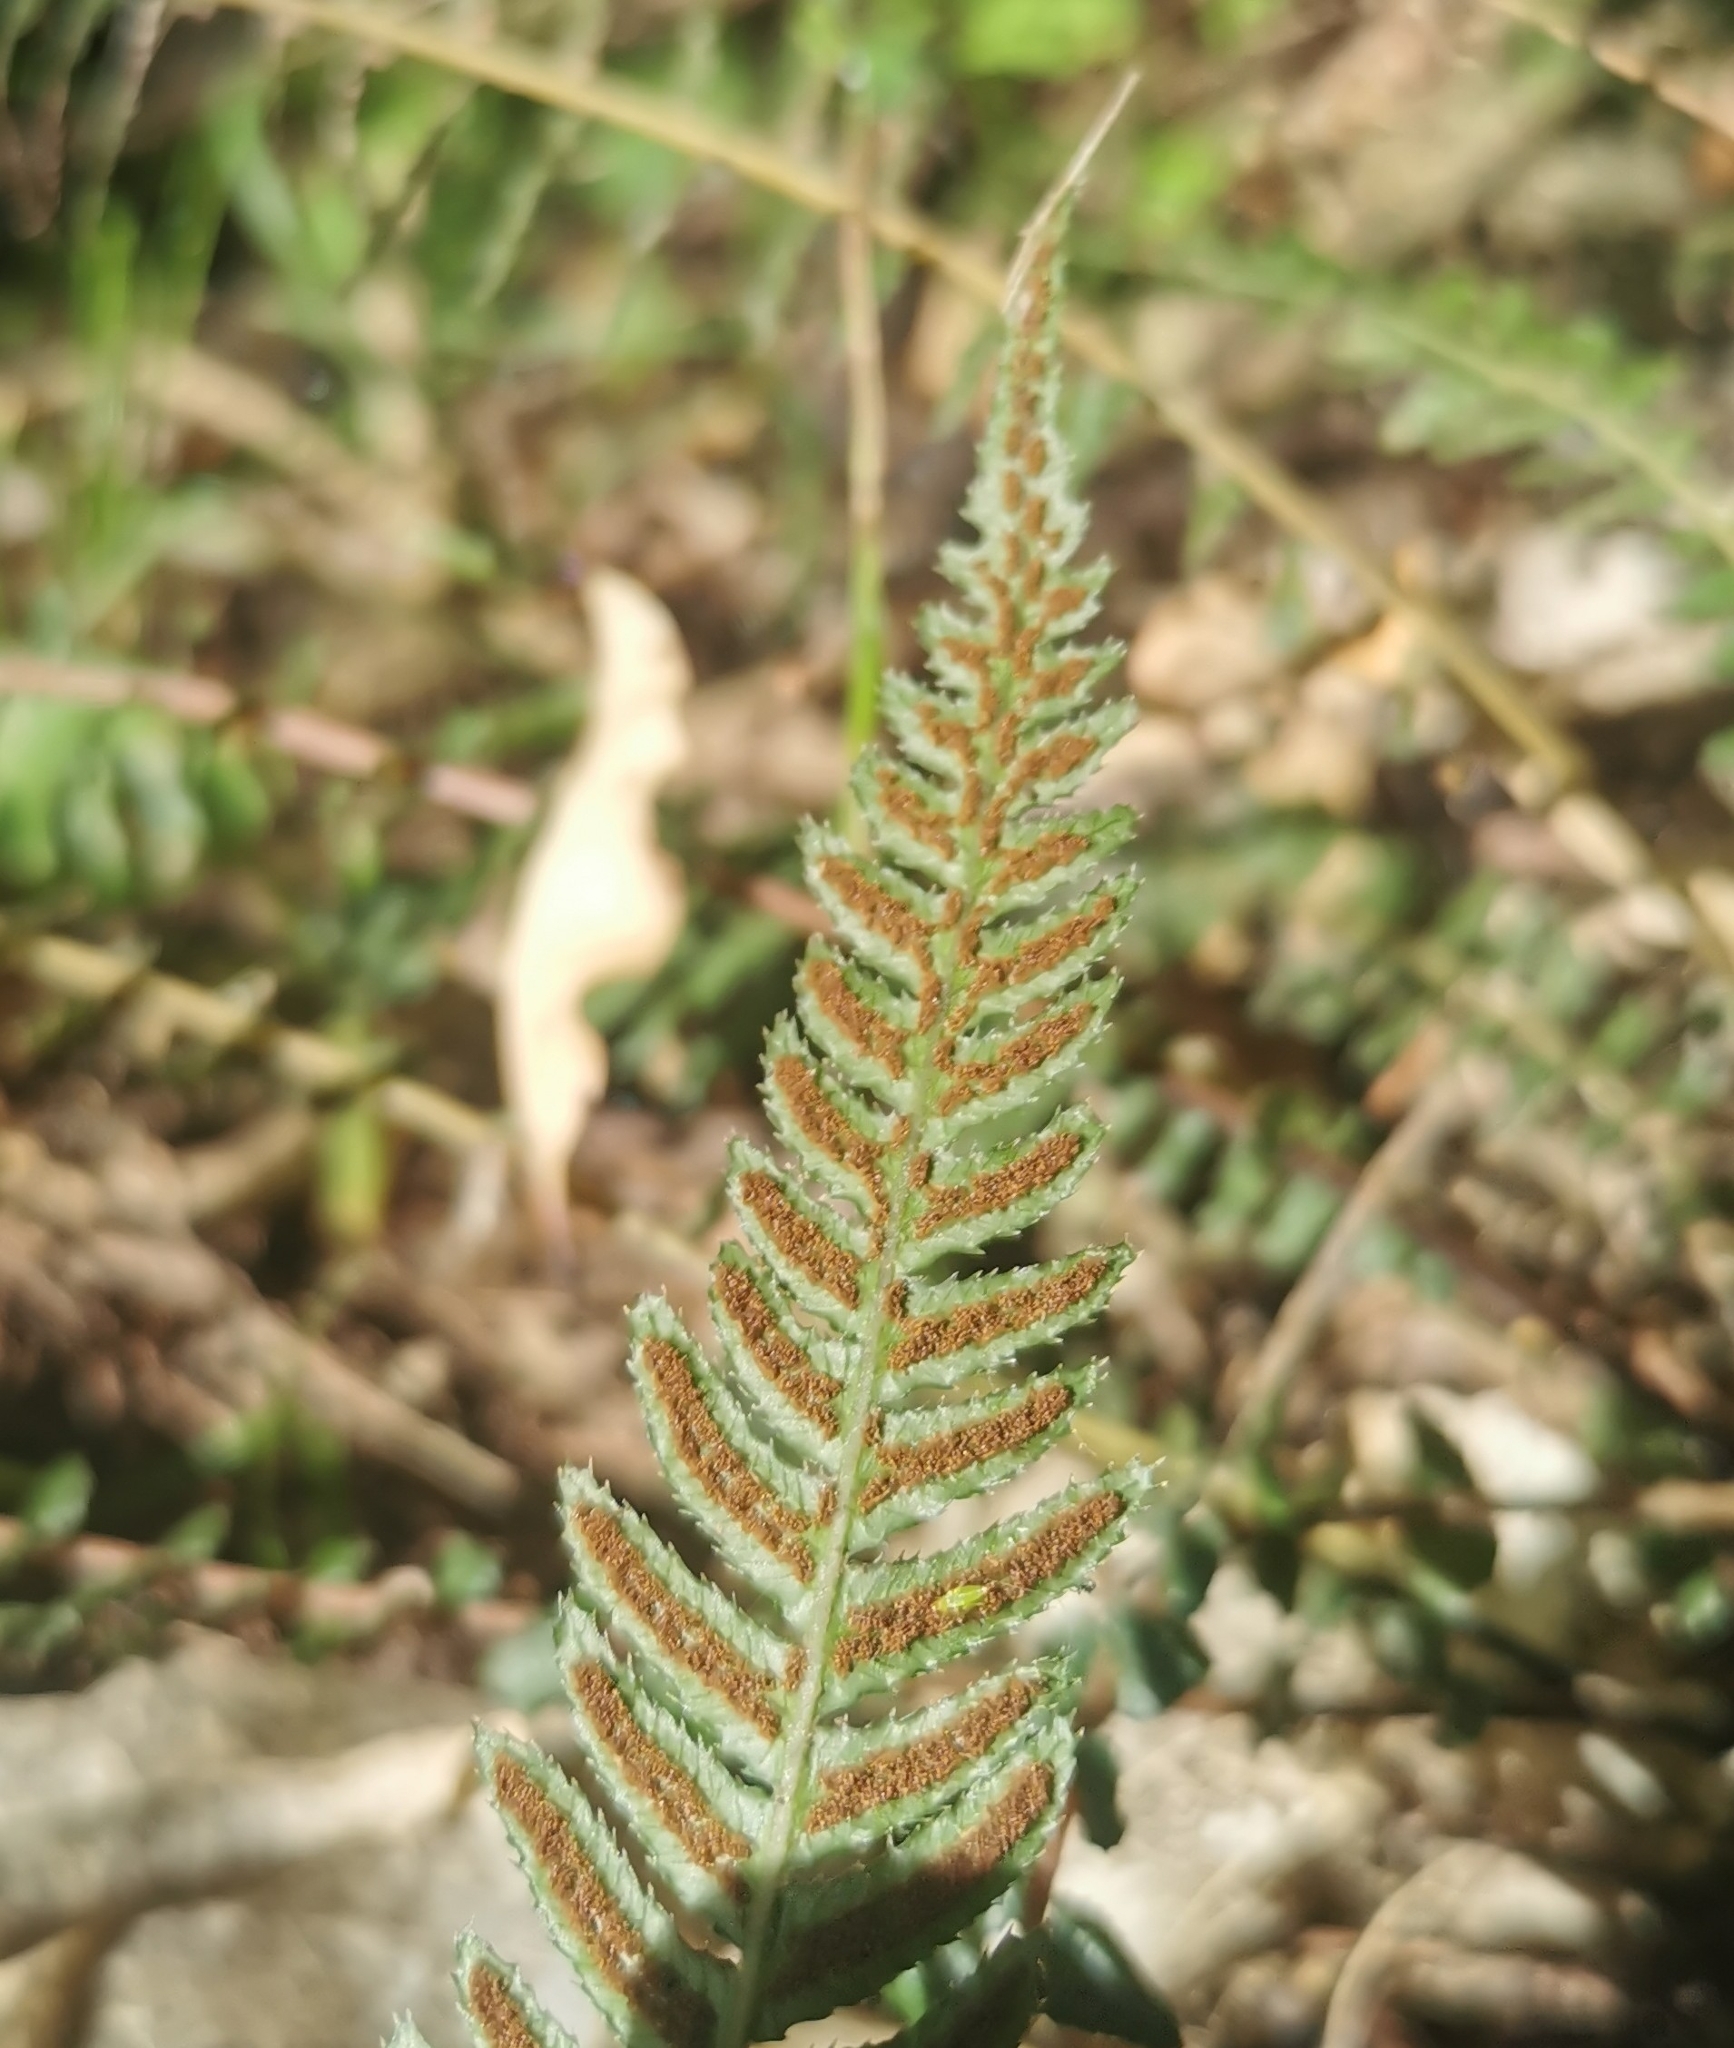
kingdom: Plantae
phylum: Tracheophyta
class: Polypodiopsida
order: Polypodiales
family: Blechnaceae
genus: Doodia
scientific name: Doodia australis
